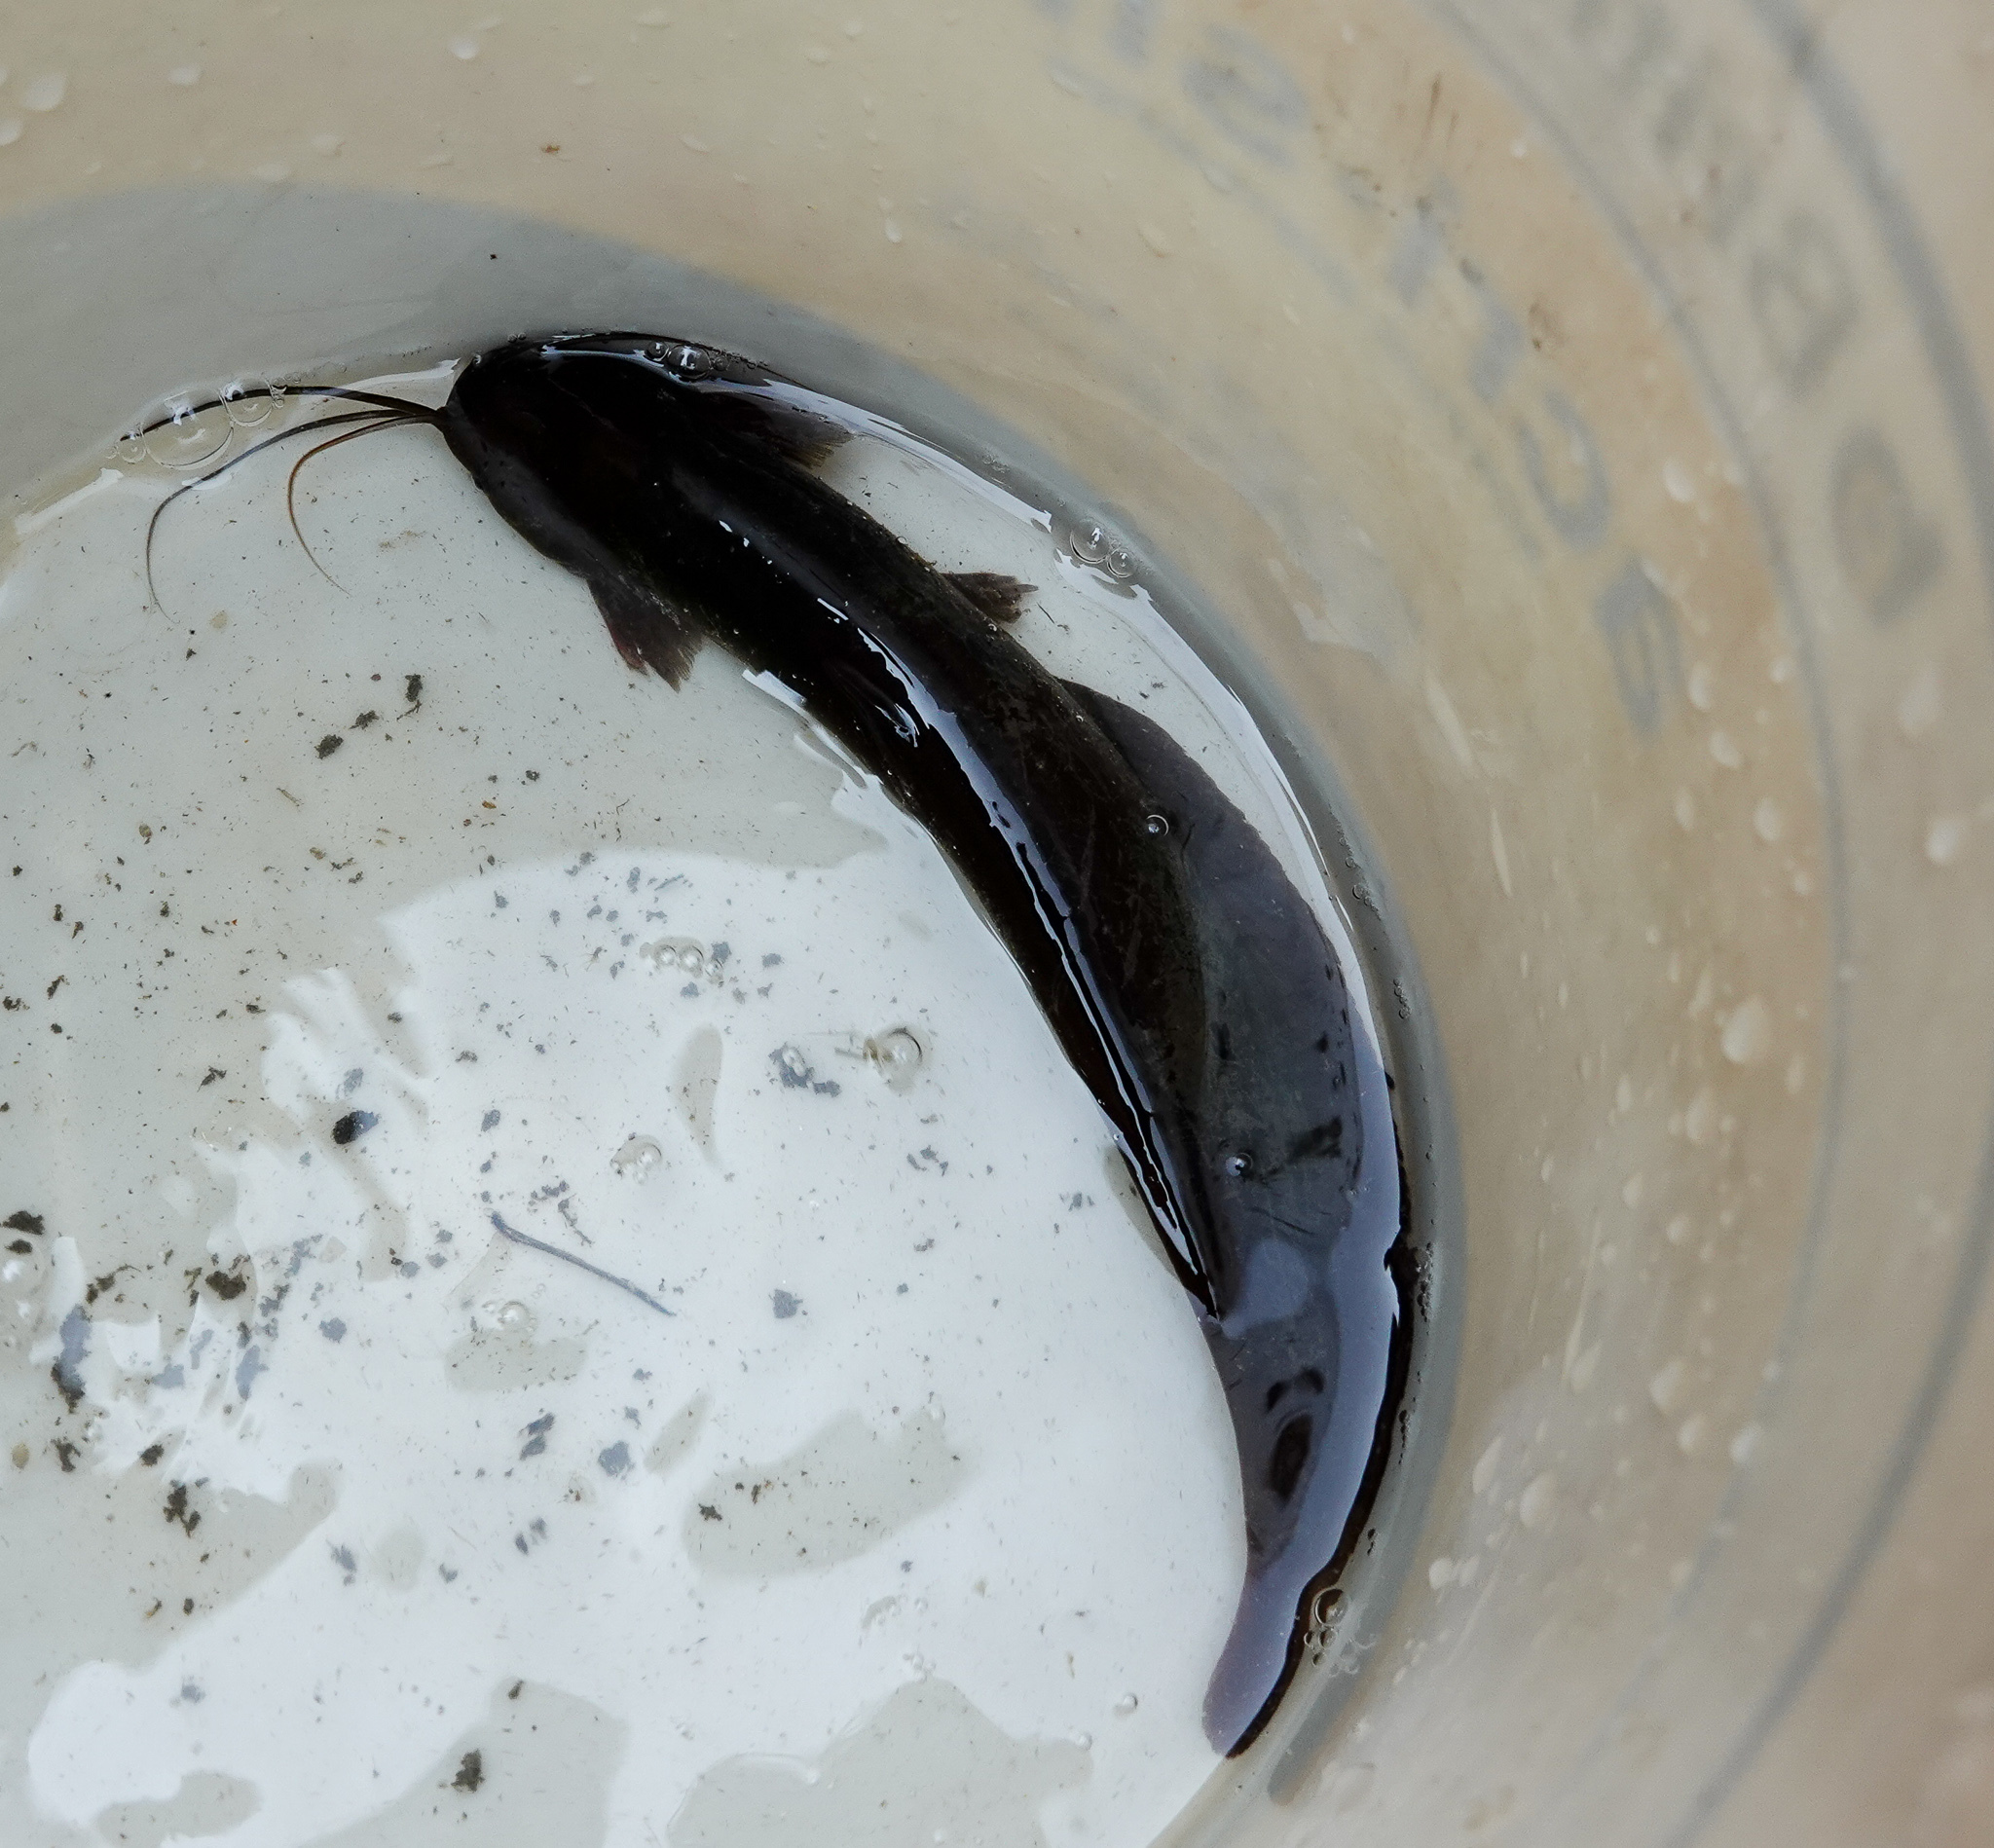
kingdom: Animalia
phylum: Chordata
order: Siluriformes
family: Heteropneustidae
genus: Heteropneustes
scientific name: Heteropneustes fossilis
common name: Stinging catfish
